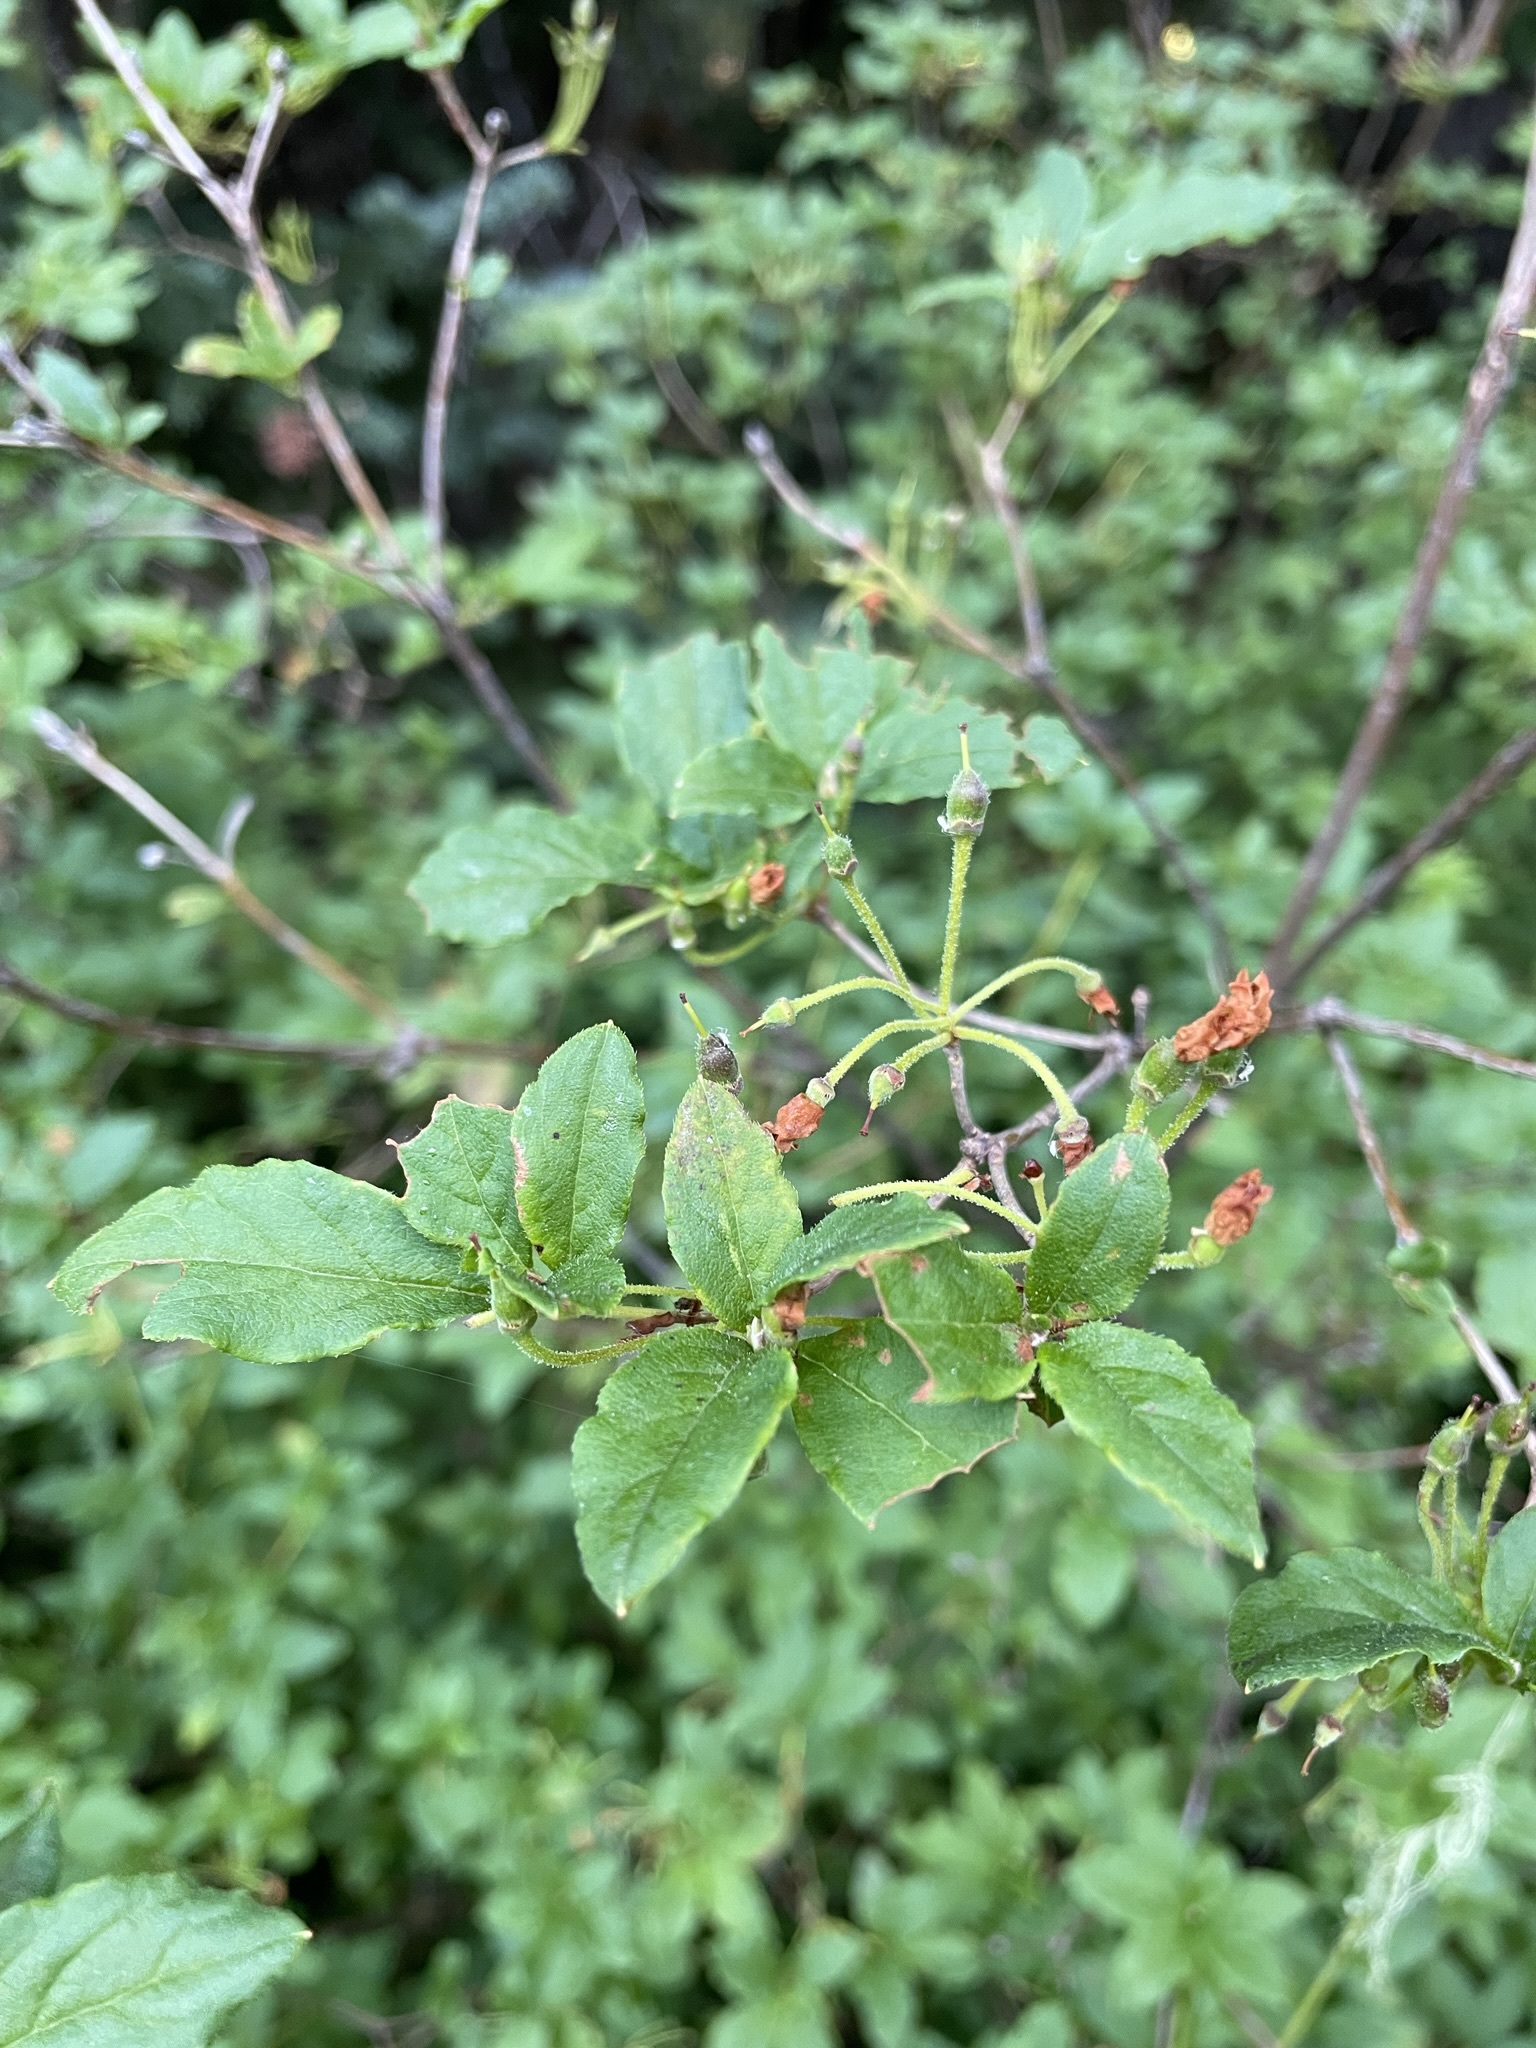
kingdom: Plantae
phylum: Tracheophyta
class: Magnoliopsida
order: Ericales
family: Ericaceae
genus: Rhododendron
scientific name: Rhododendron menziesii
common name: Pacific menziesia
